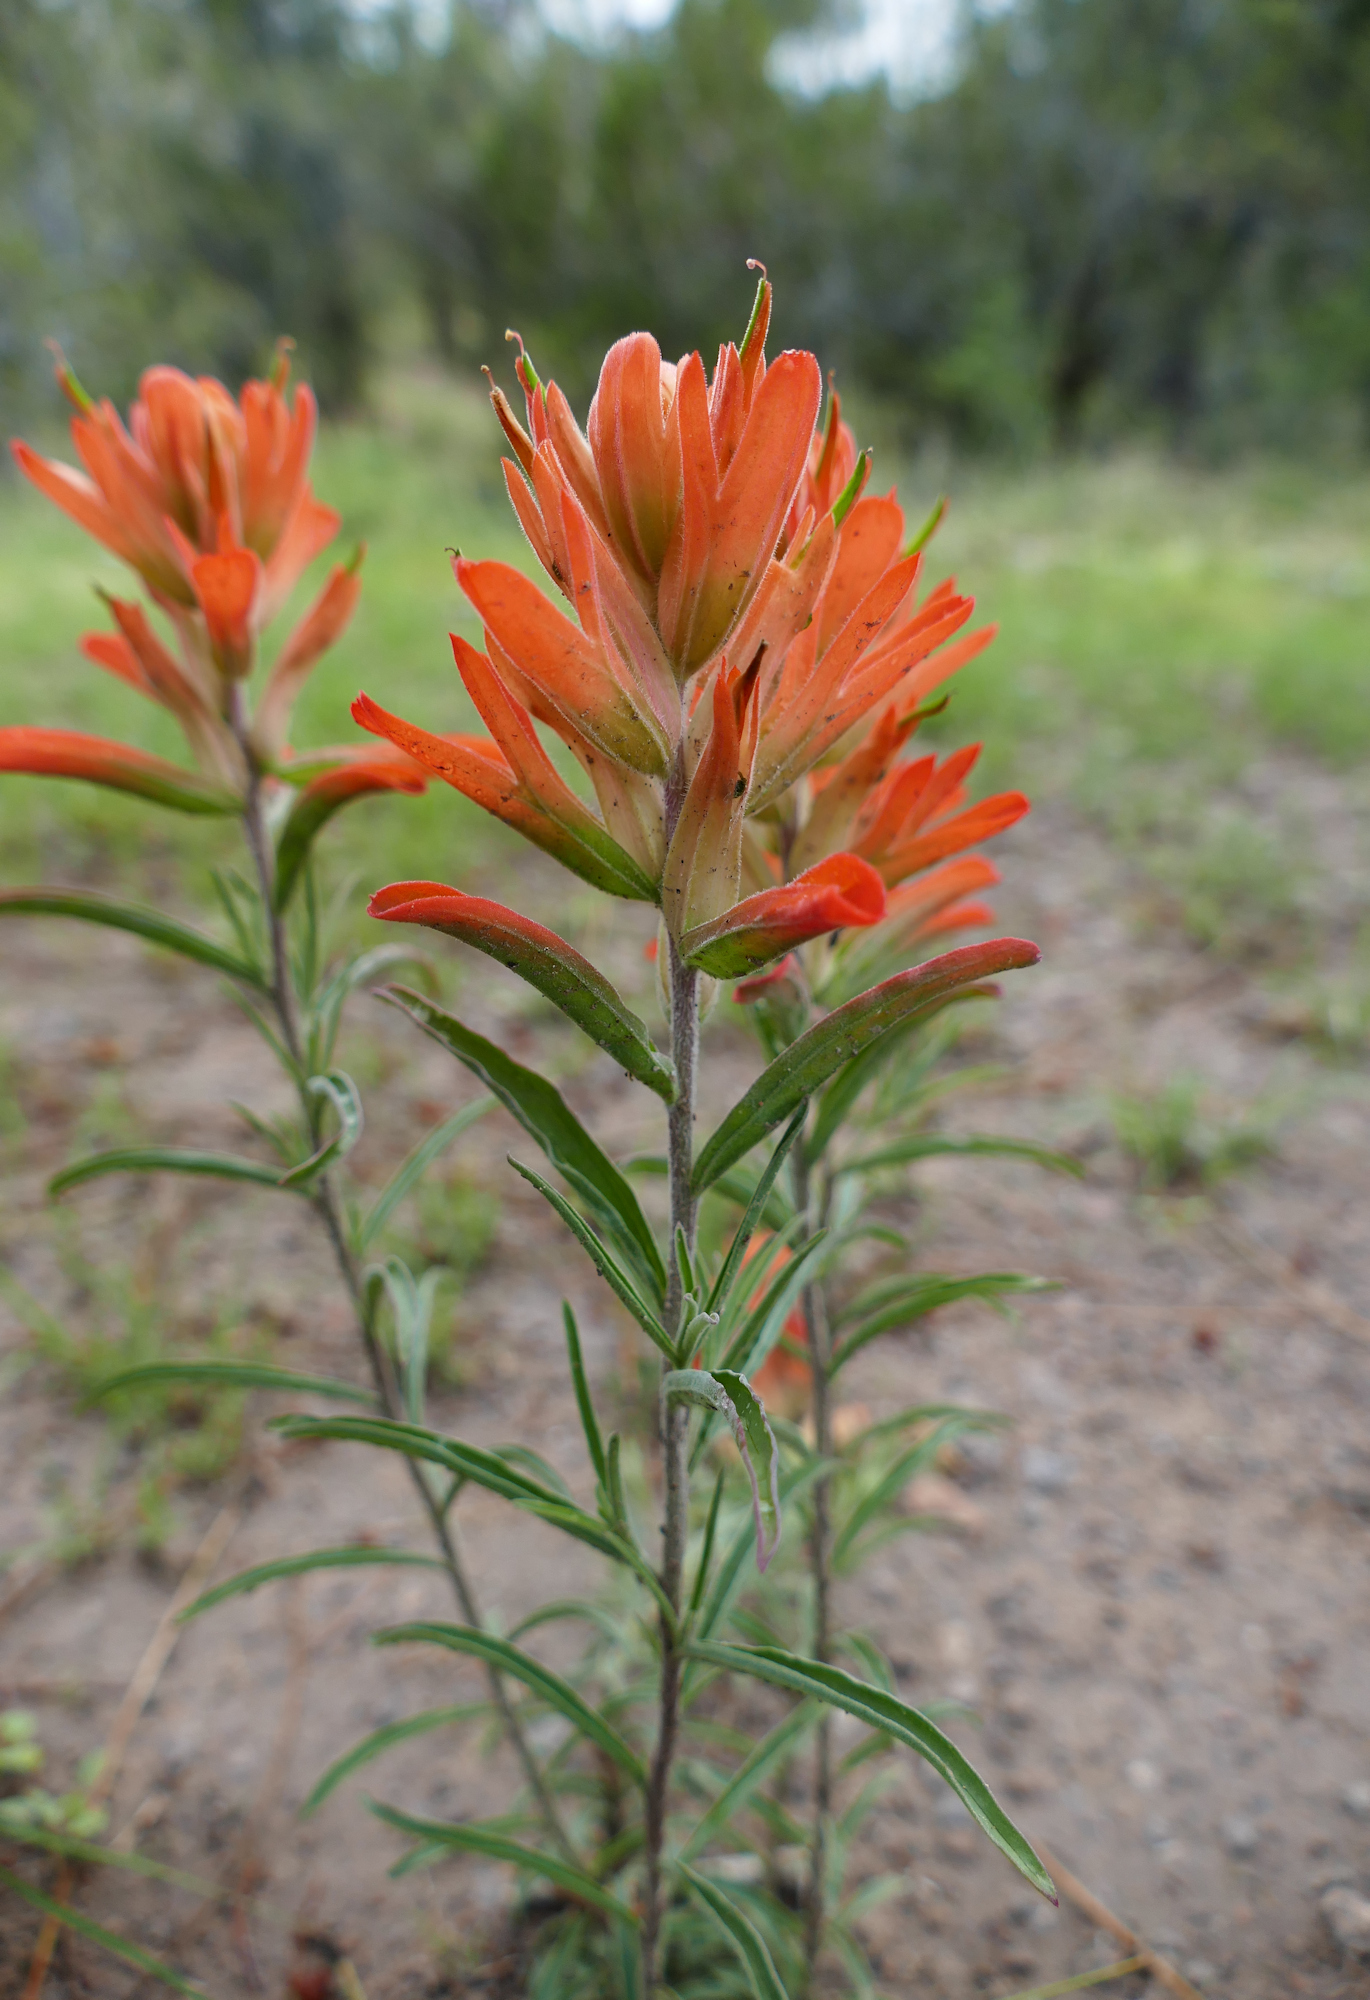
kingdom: Plantae
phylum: Tracheophyta
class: Magnoliopsida
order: Lamiales
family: Orobanchaceae
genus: Castilleja
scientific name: Castilleja integra
